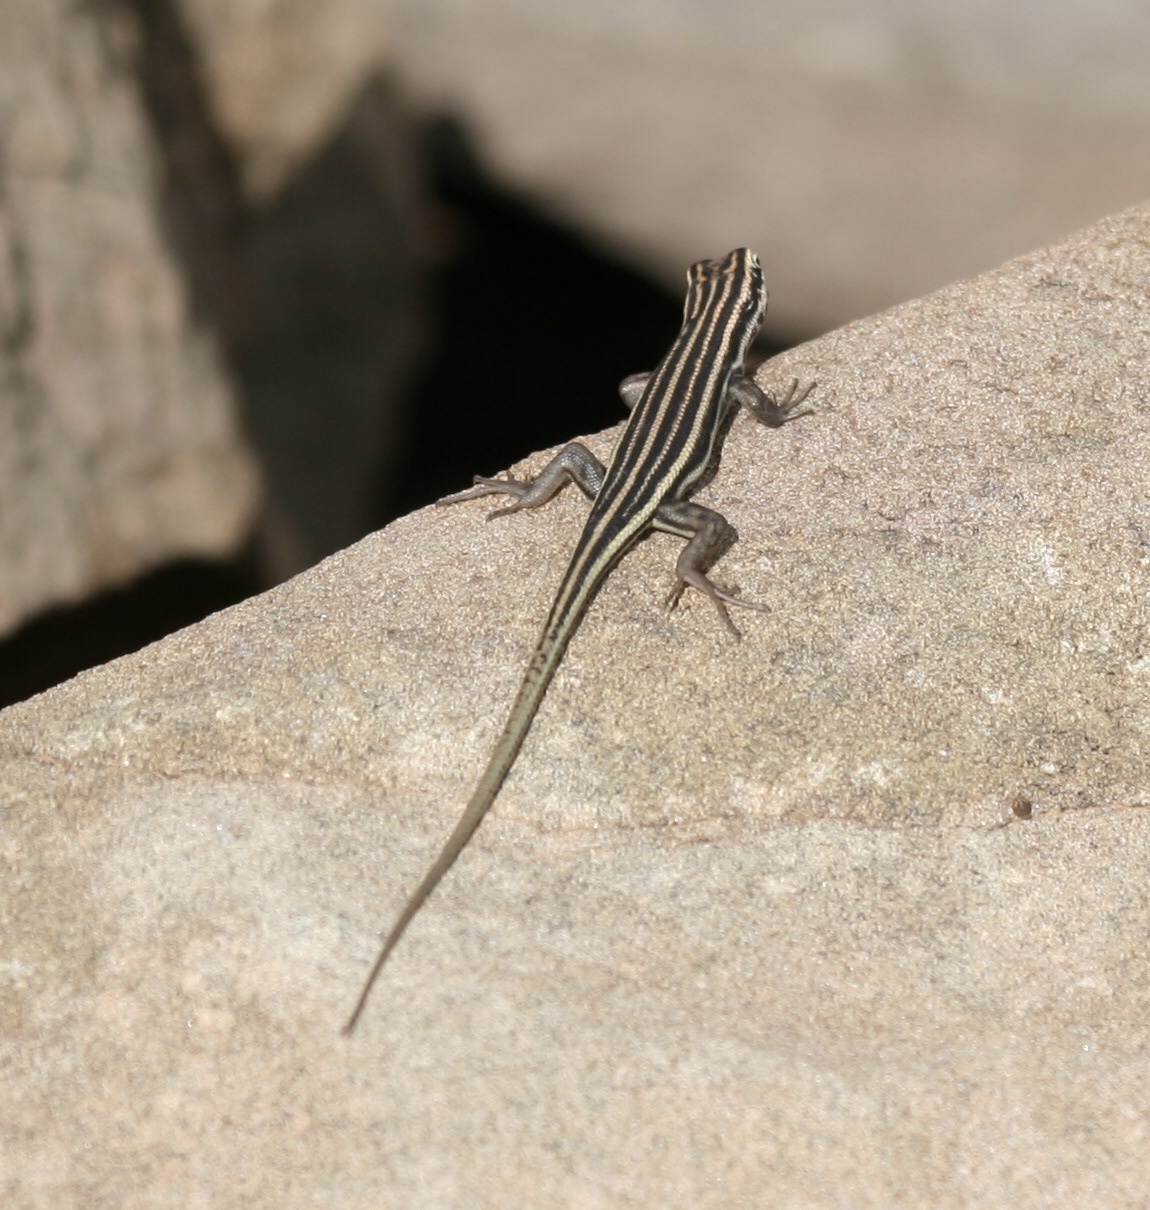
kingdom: Animalia
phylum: Chordata
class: Squamata
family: Scincidae
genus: Trachylepis
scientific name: Trachylepis sulcata
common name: Western rock skink
